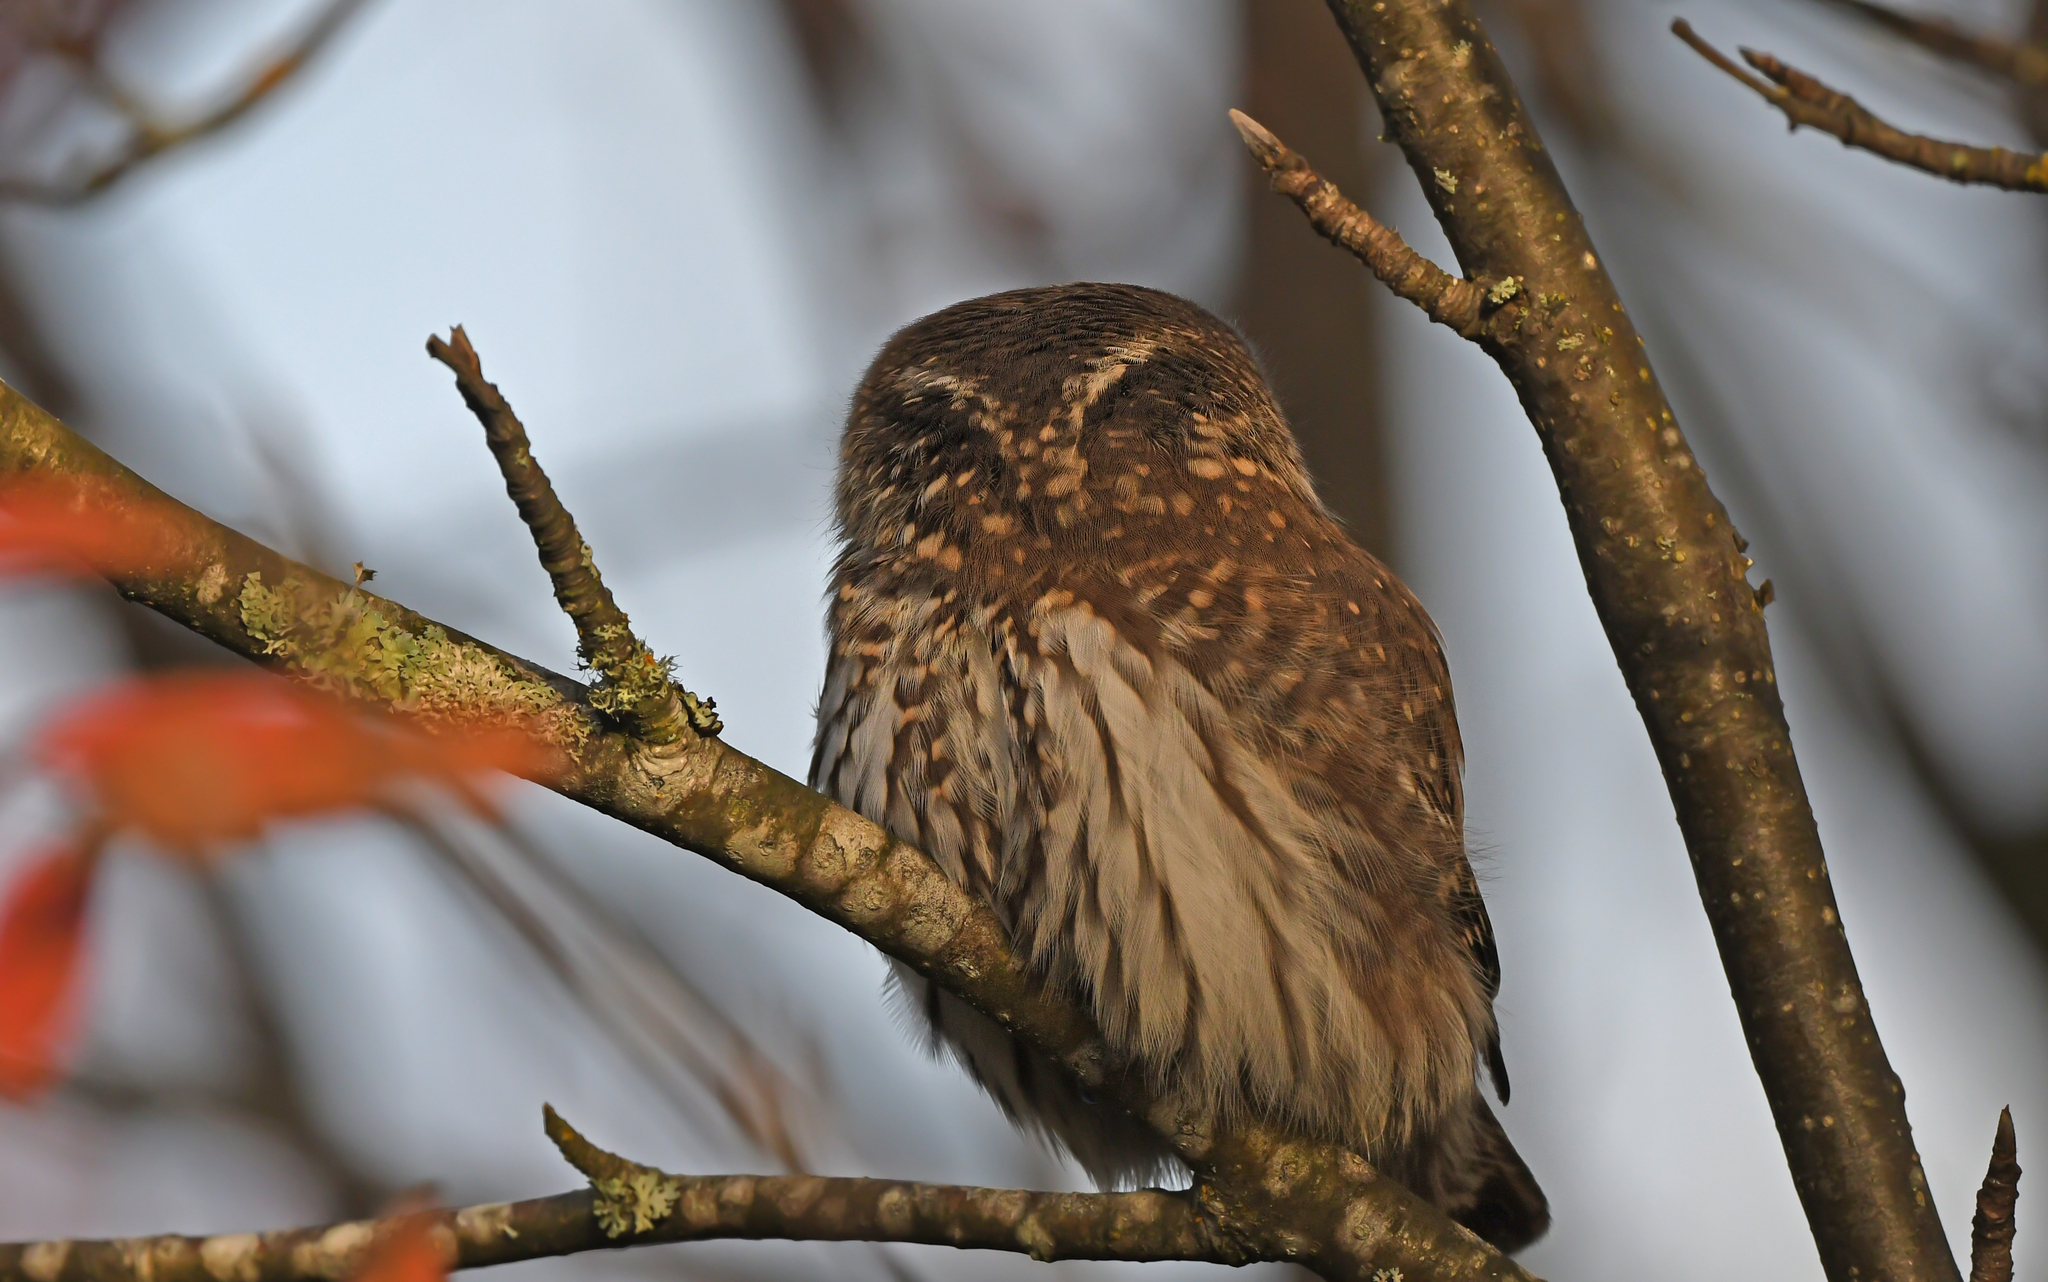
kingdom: Animalia
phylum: Chordata
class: Aves
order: Strigiformes
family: Strigidae
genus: Glaucidium
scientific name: Glaucidium passerinum
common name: Eurasian pygmy owl
